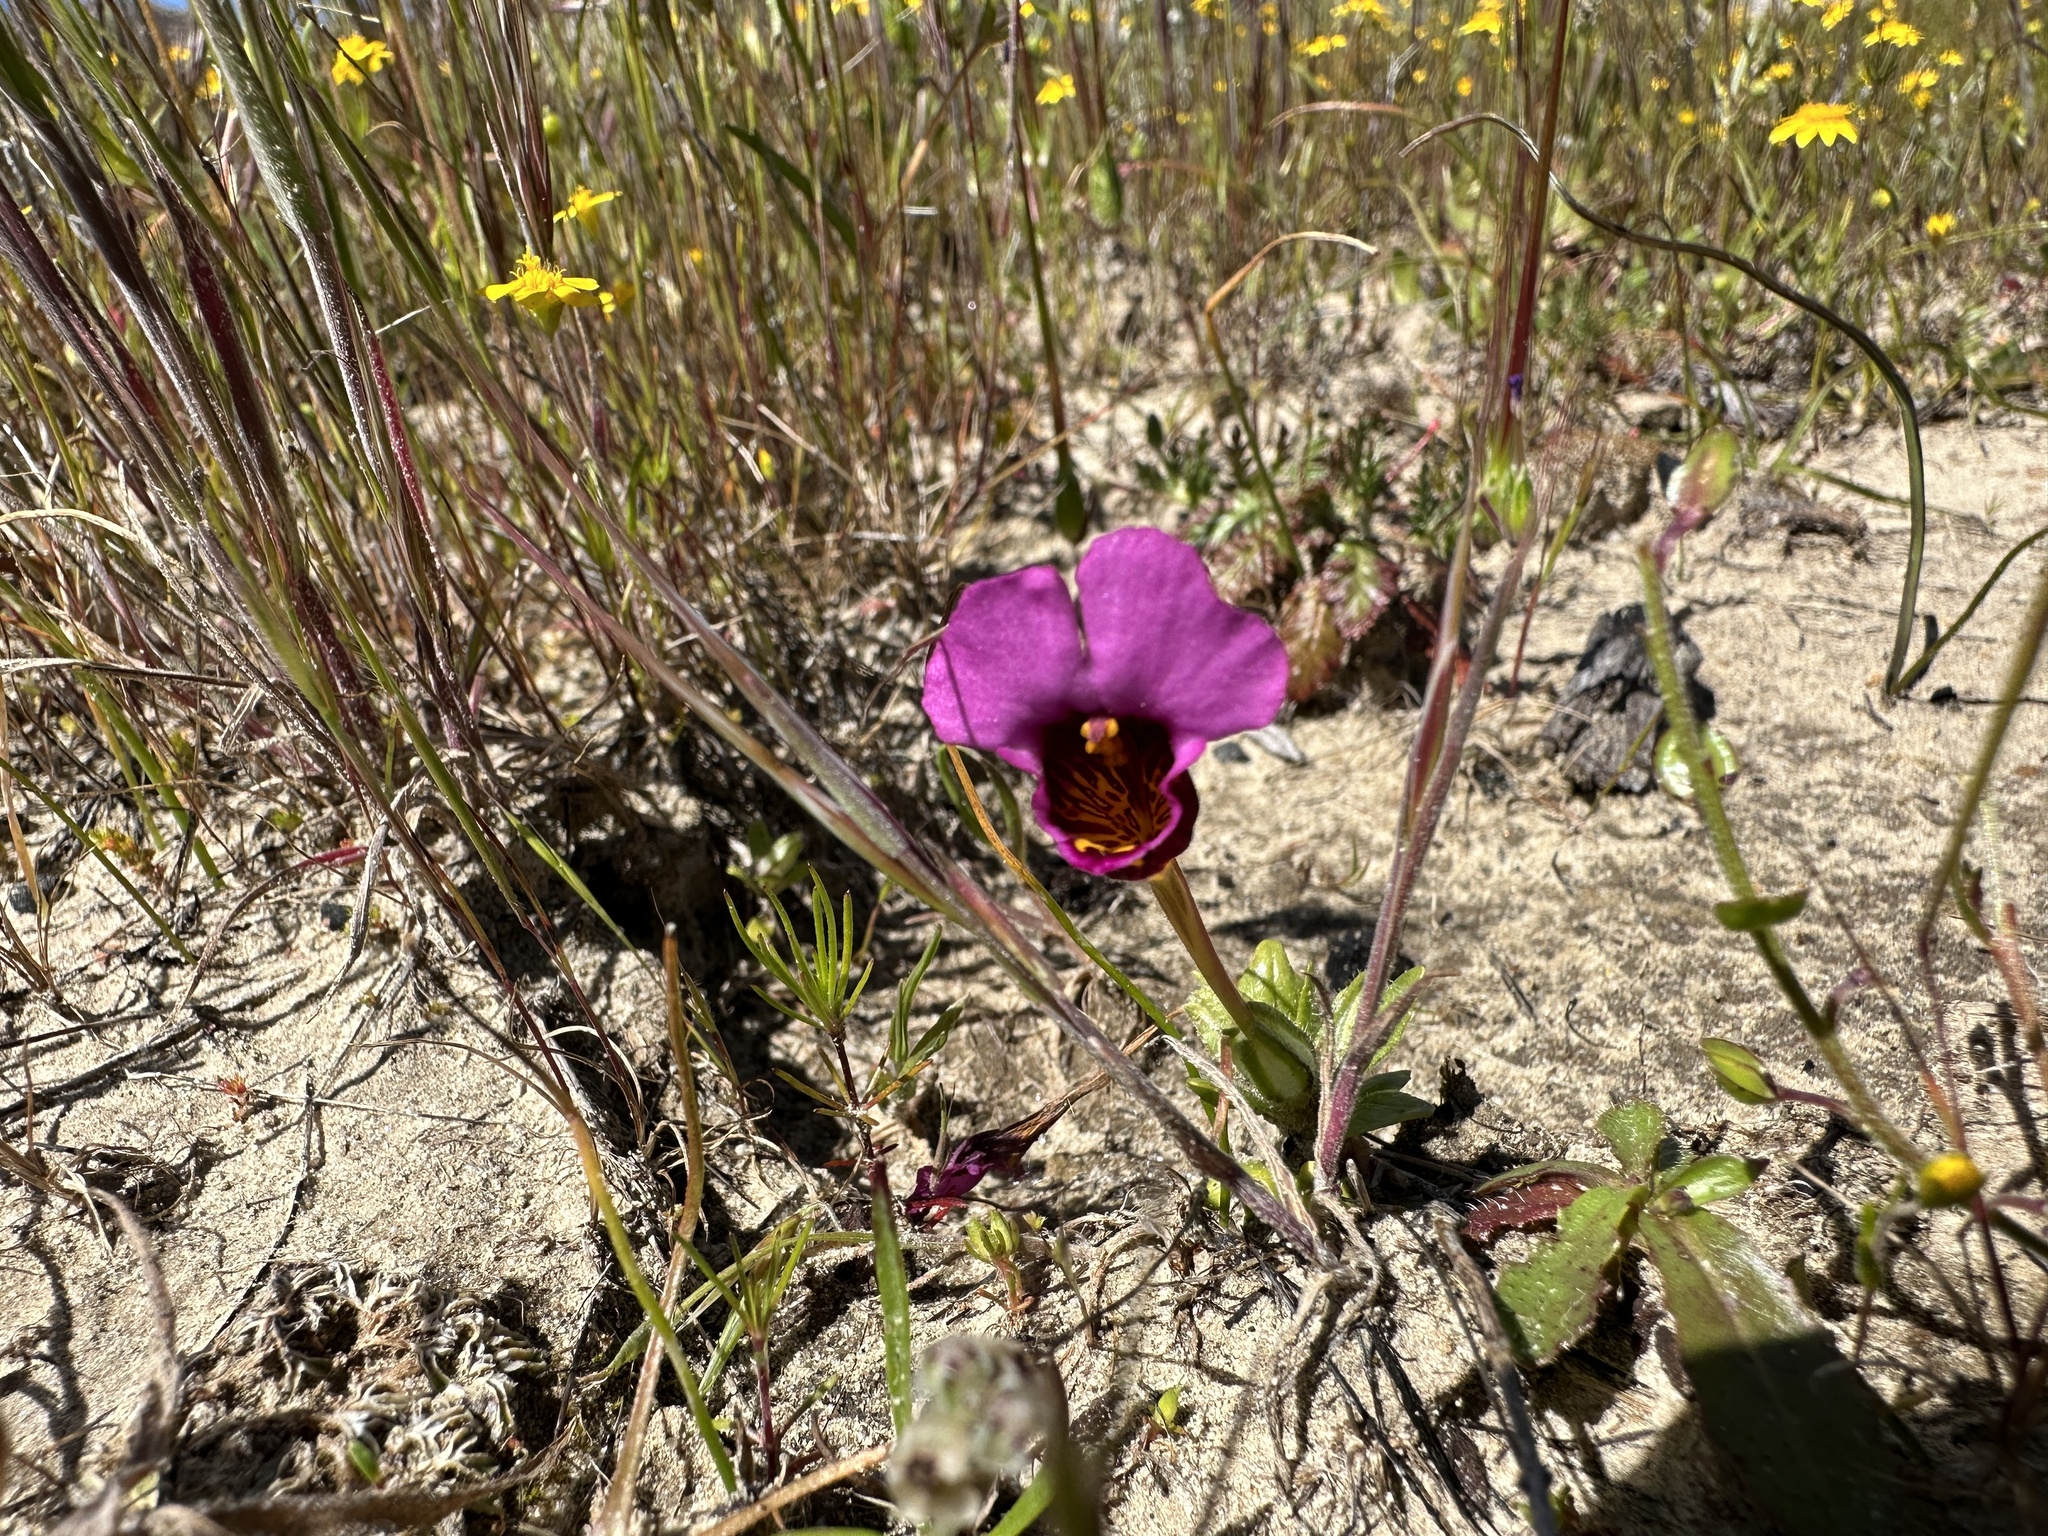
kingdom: Plantae
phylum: Tracheophyta
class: Magnoliopsida
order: Lamiales
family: Phrymaceae
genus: Diplacus
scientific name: Diplacus douglasii
